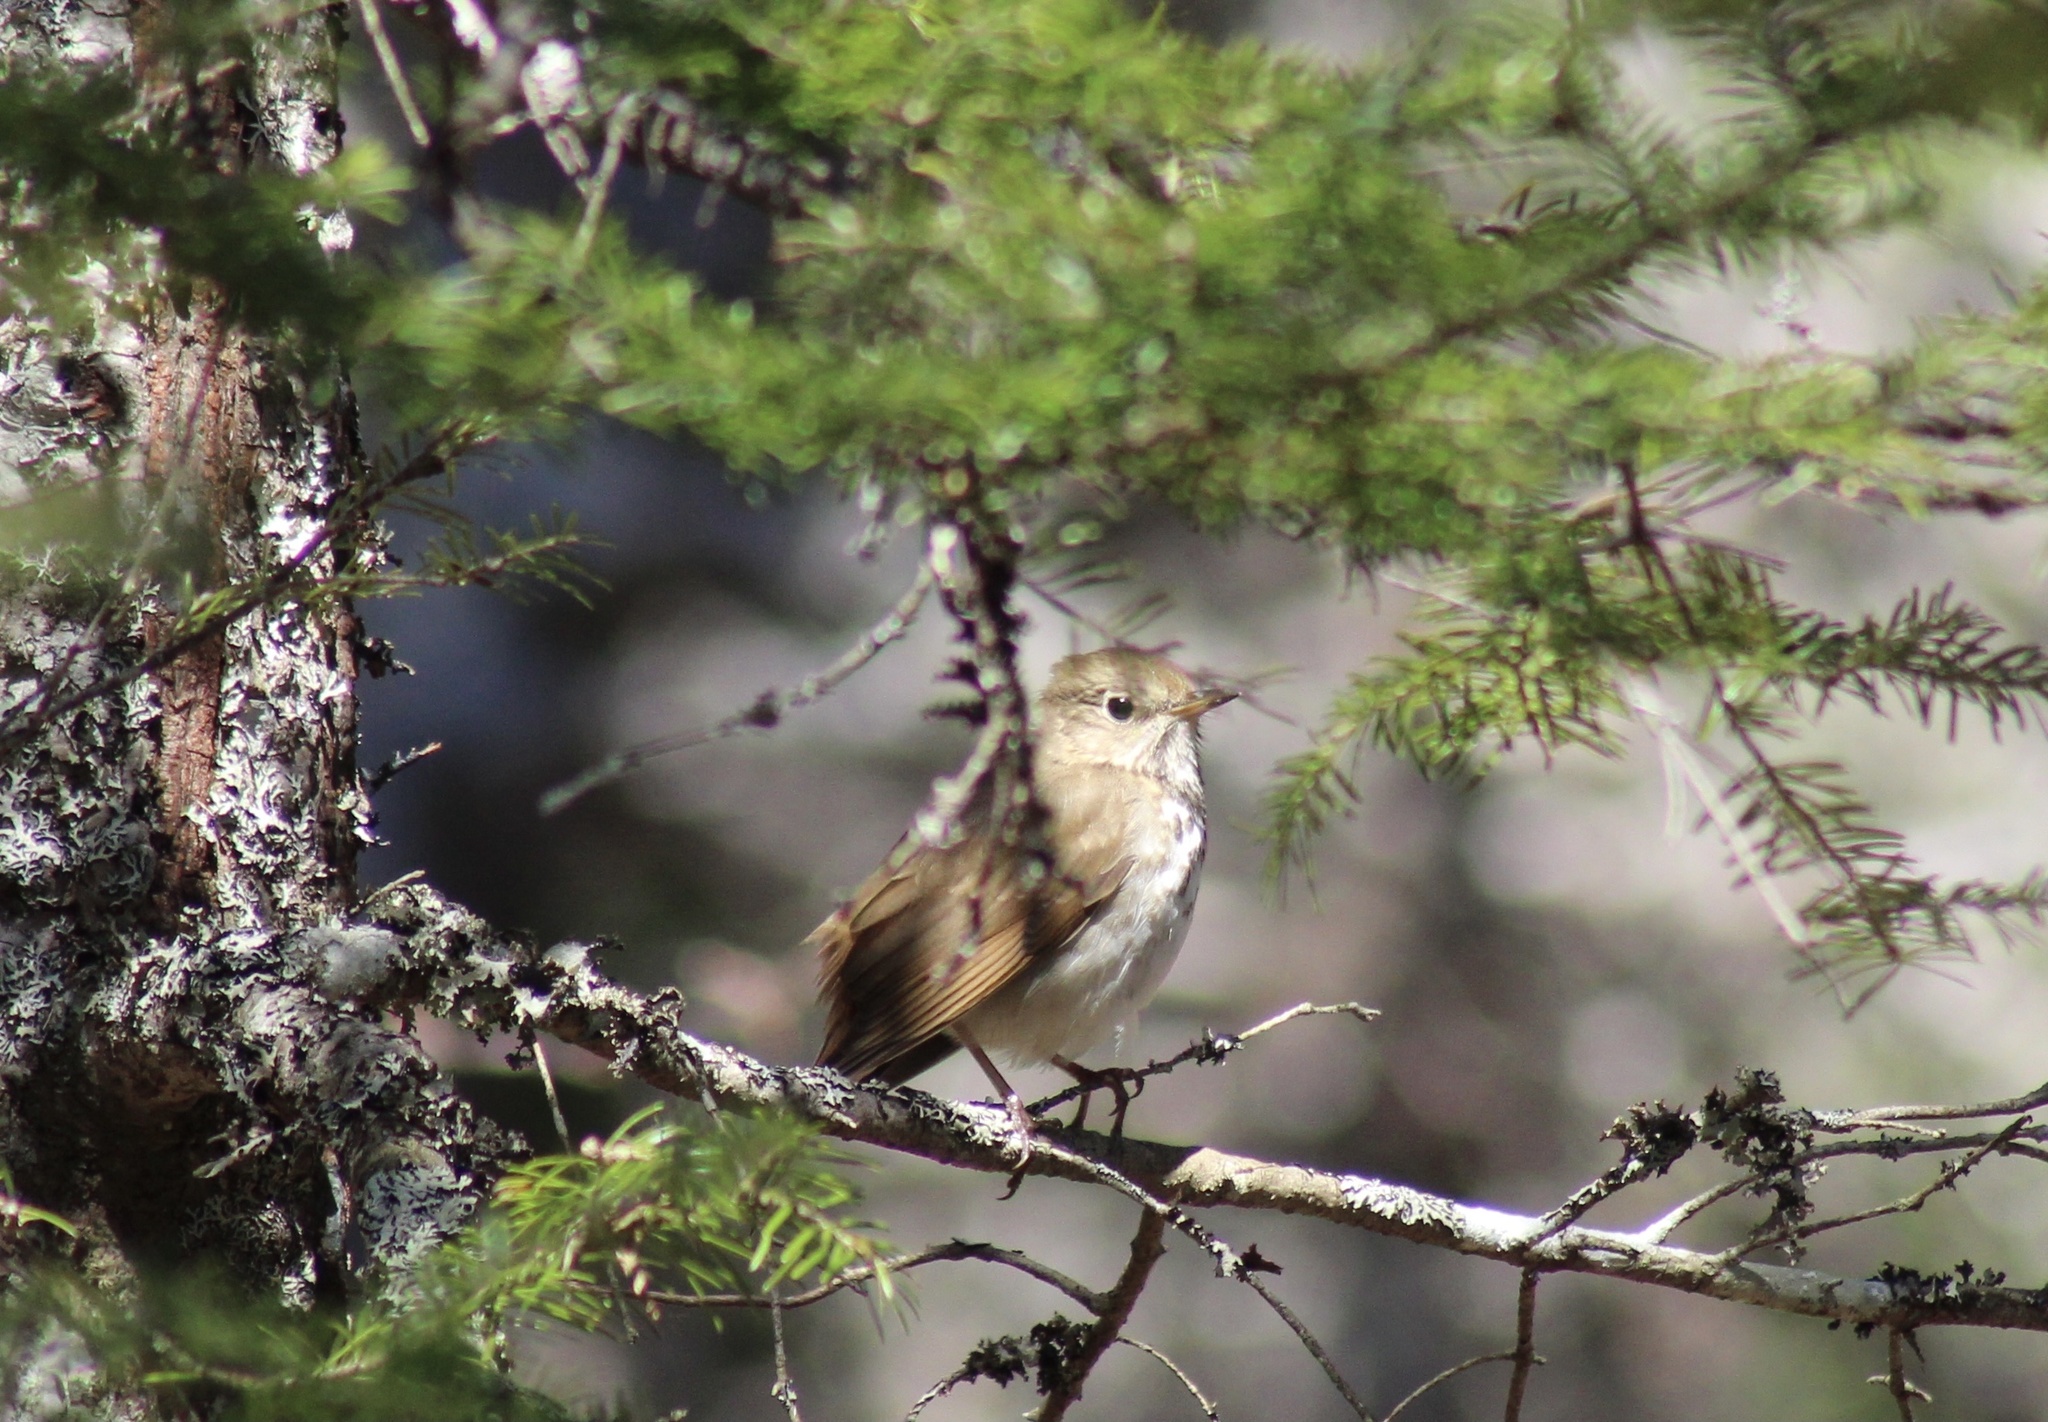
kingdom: Animalia
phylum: Chordata
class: Aves
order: Passeriformes
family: Turdidae
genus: Catharus
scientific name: Catharus guttatus
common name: Hermit thrush
